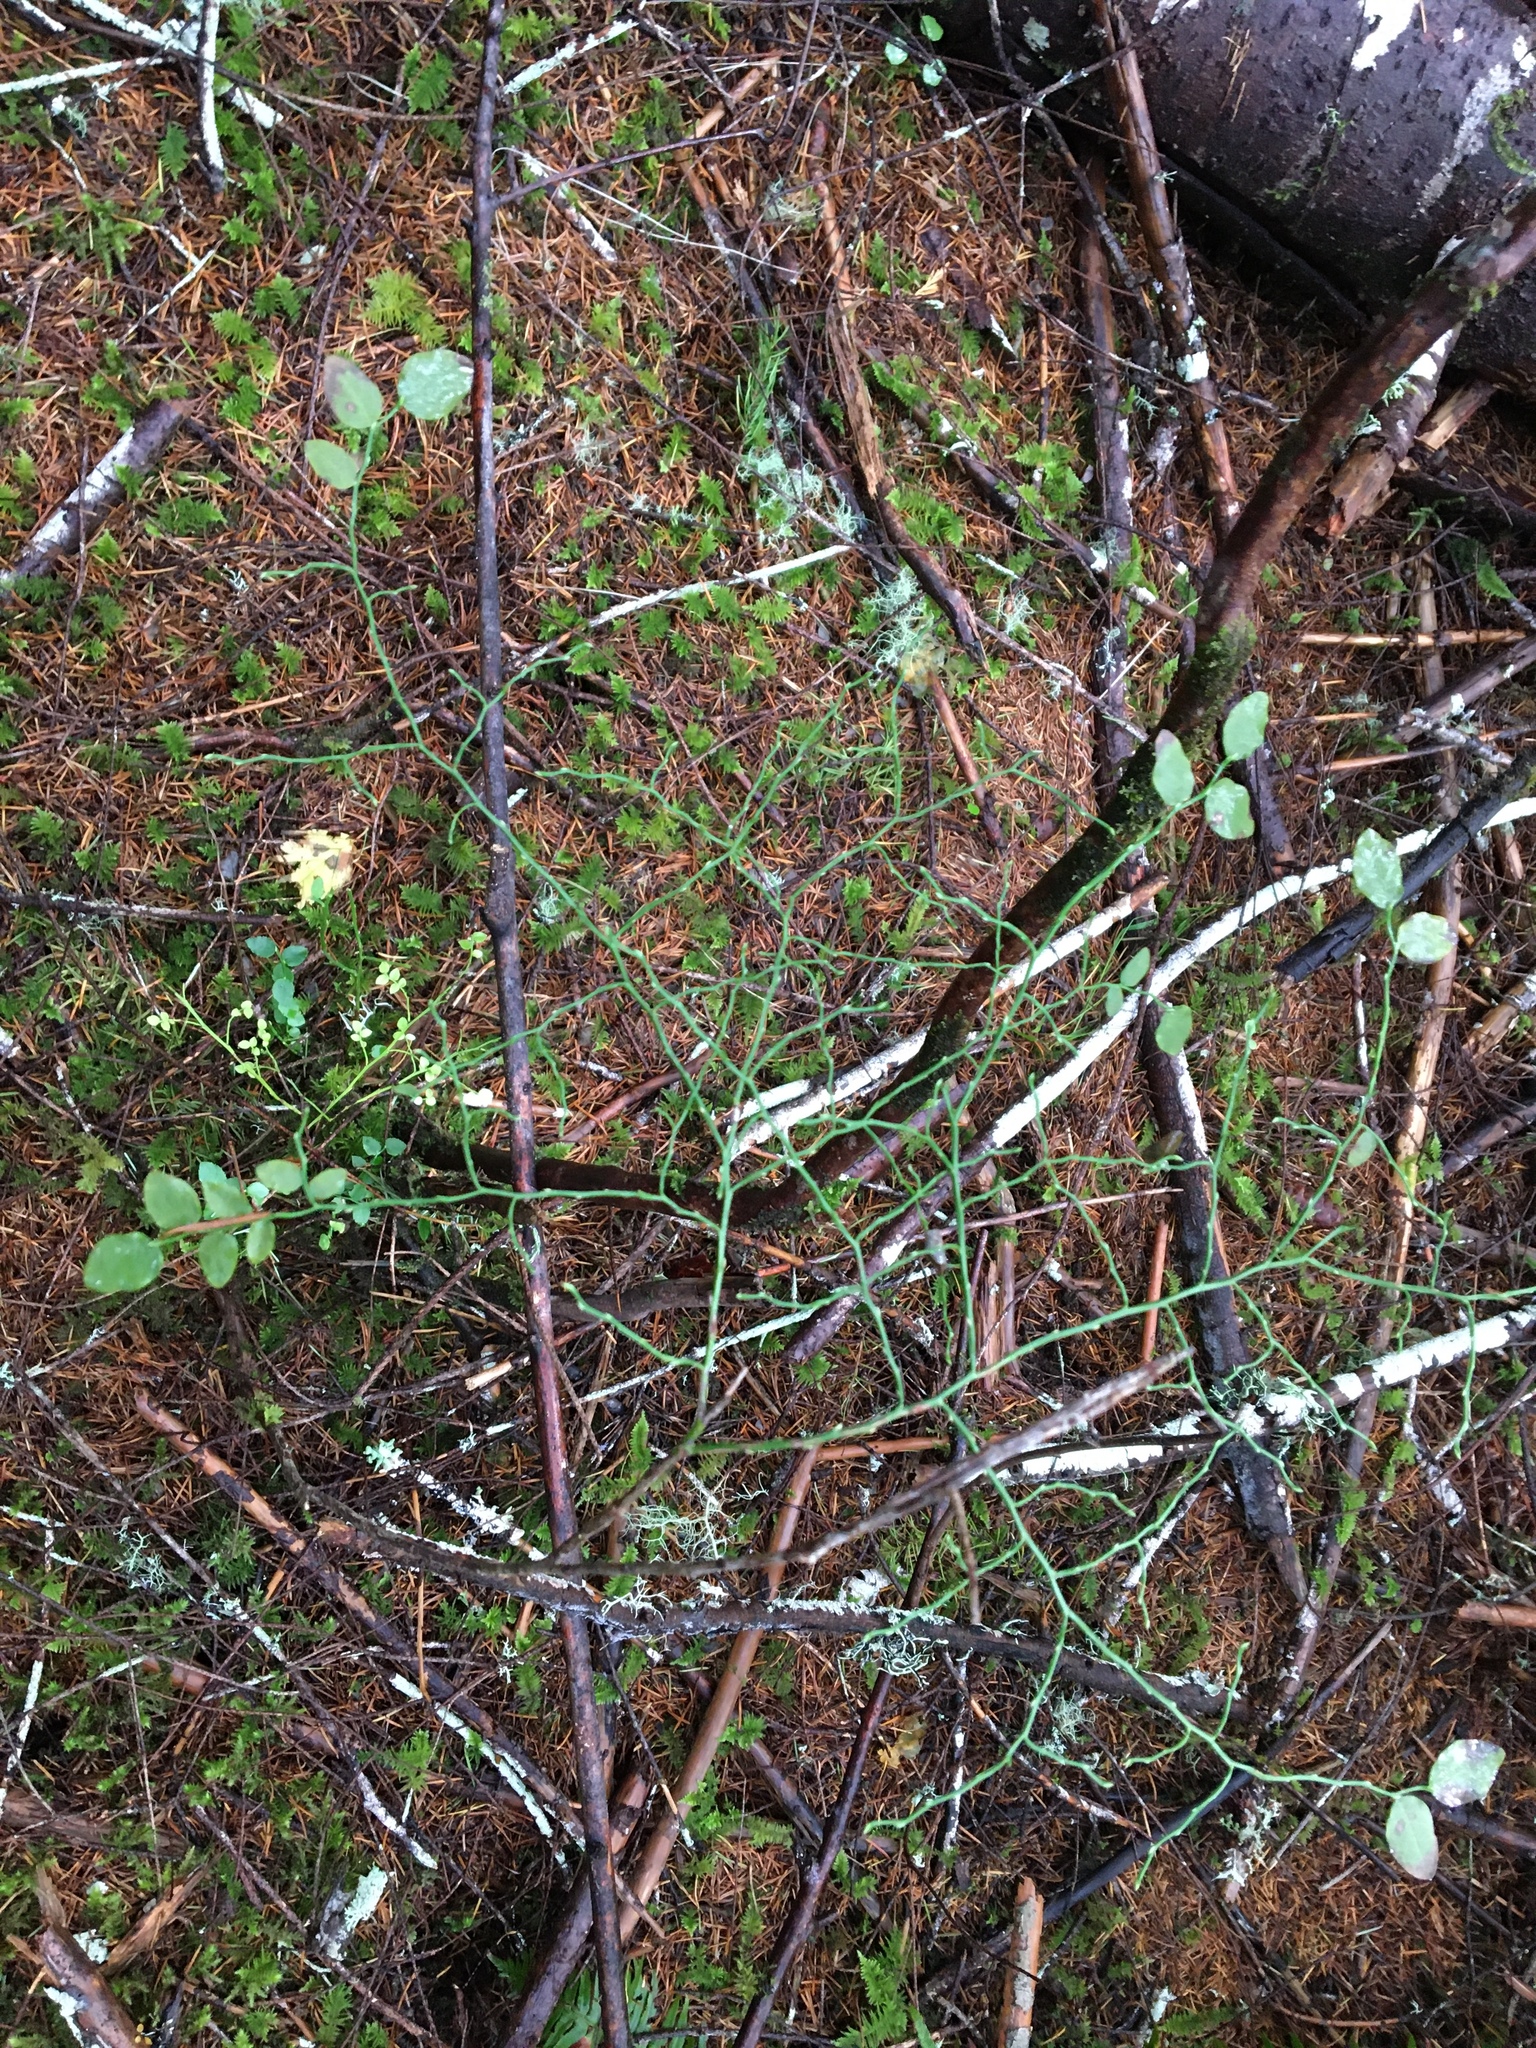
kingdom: Plantae
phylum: Tracheophyta
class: Magnoliopsida
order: Ericales
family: Ericaceae
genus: Vaccinium
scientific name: Vaccinium parvifolium
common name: Red-huckleberry
